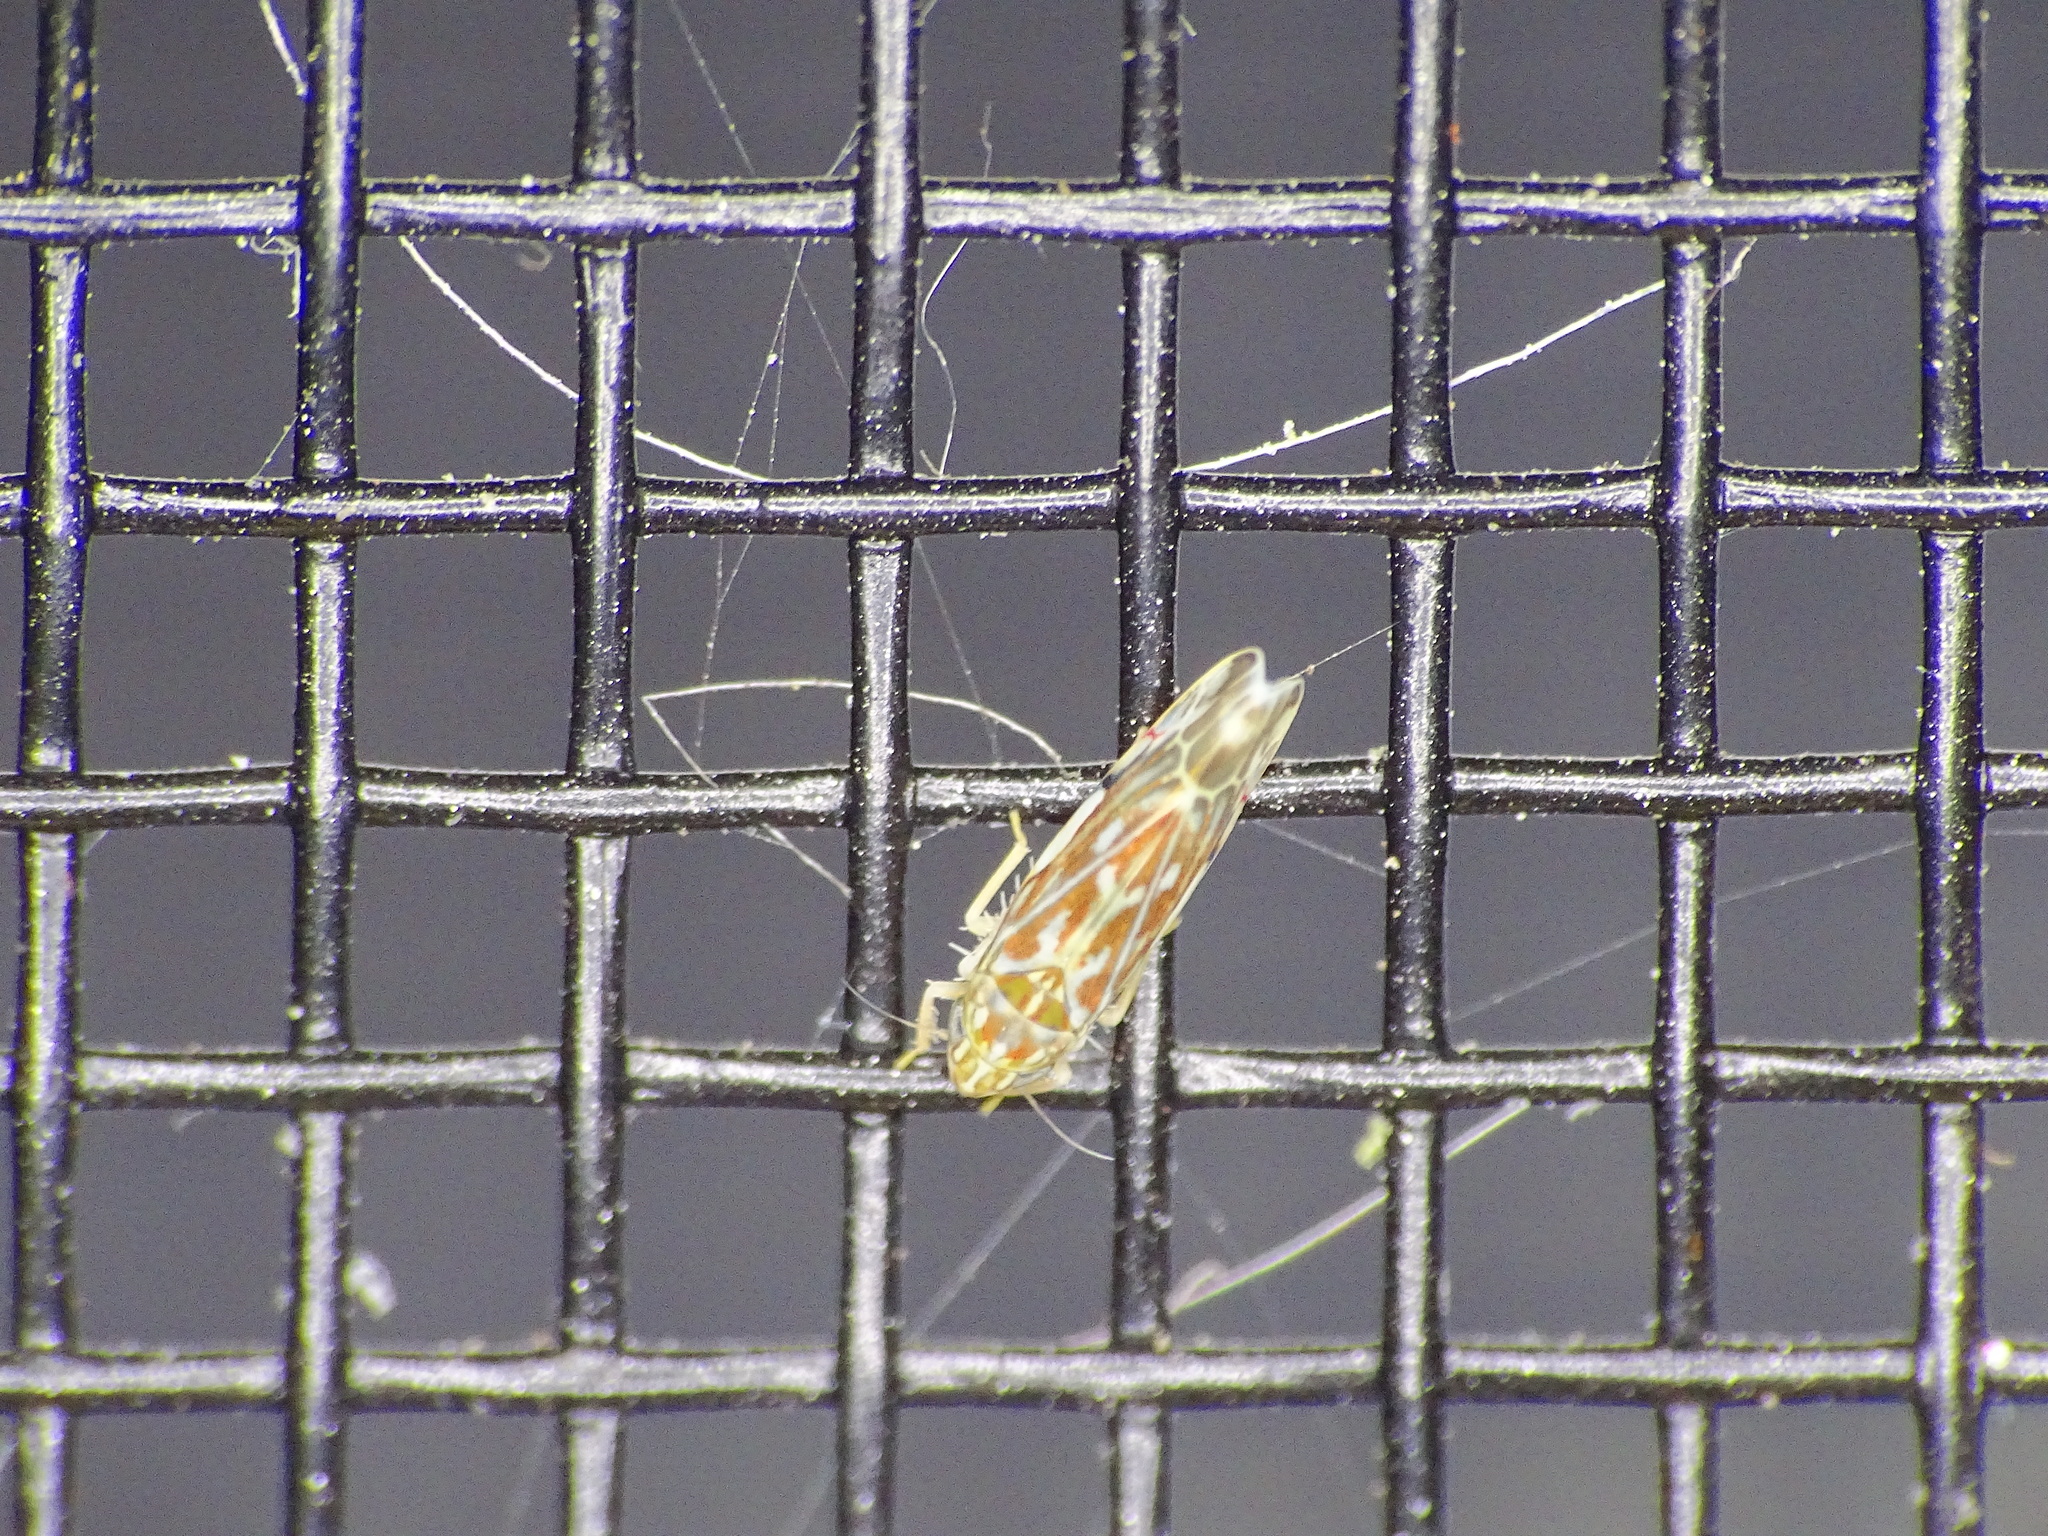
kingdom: Animalia
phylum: Arthropoda
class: Insecta
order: Hemiptera
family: Cicadellidae
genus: Erasmoneura
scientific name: Erasmoneura vulnerata
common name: The wounded leafhopper
